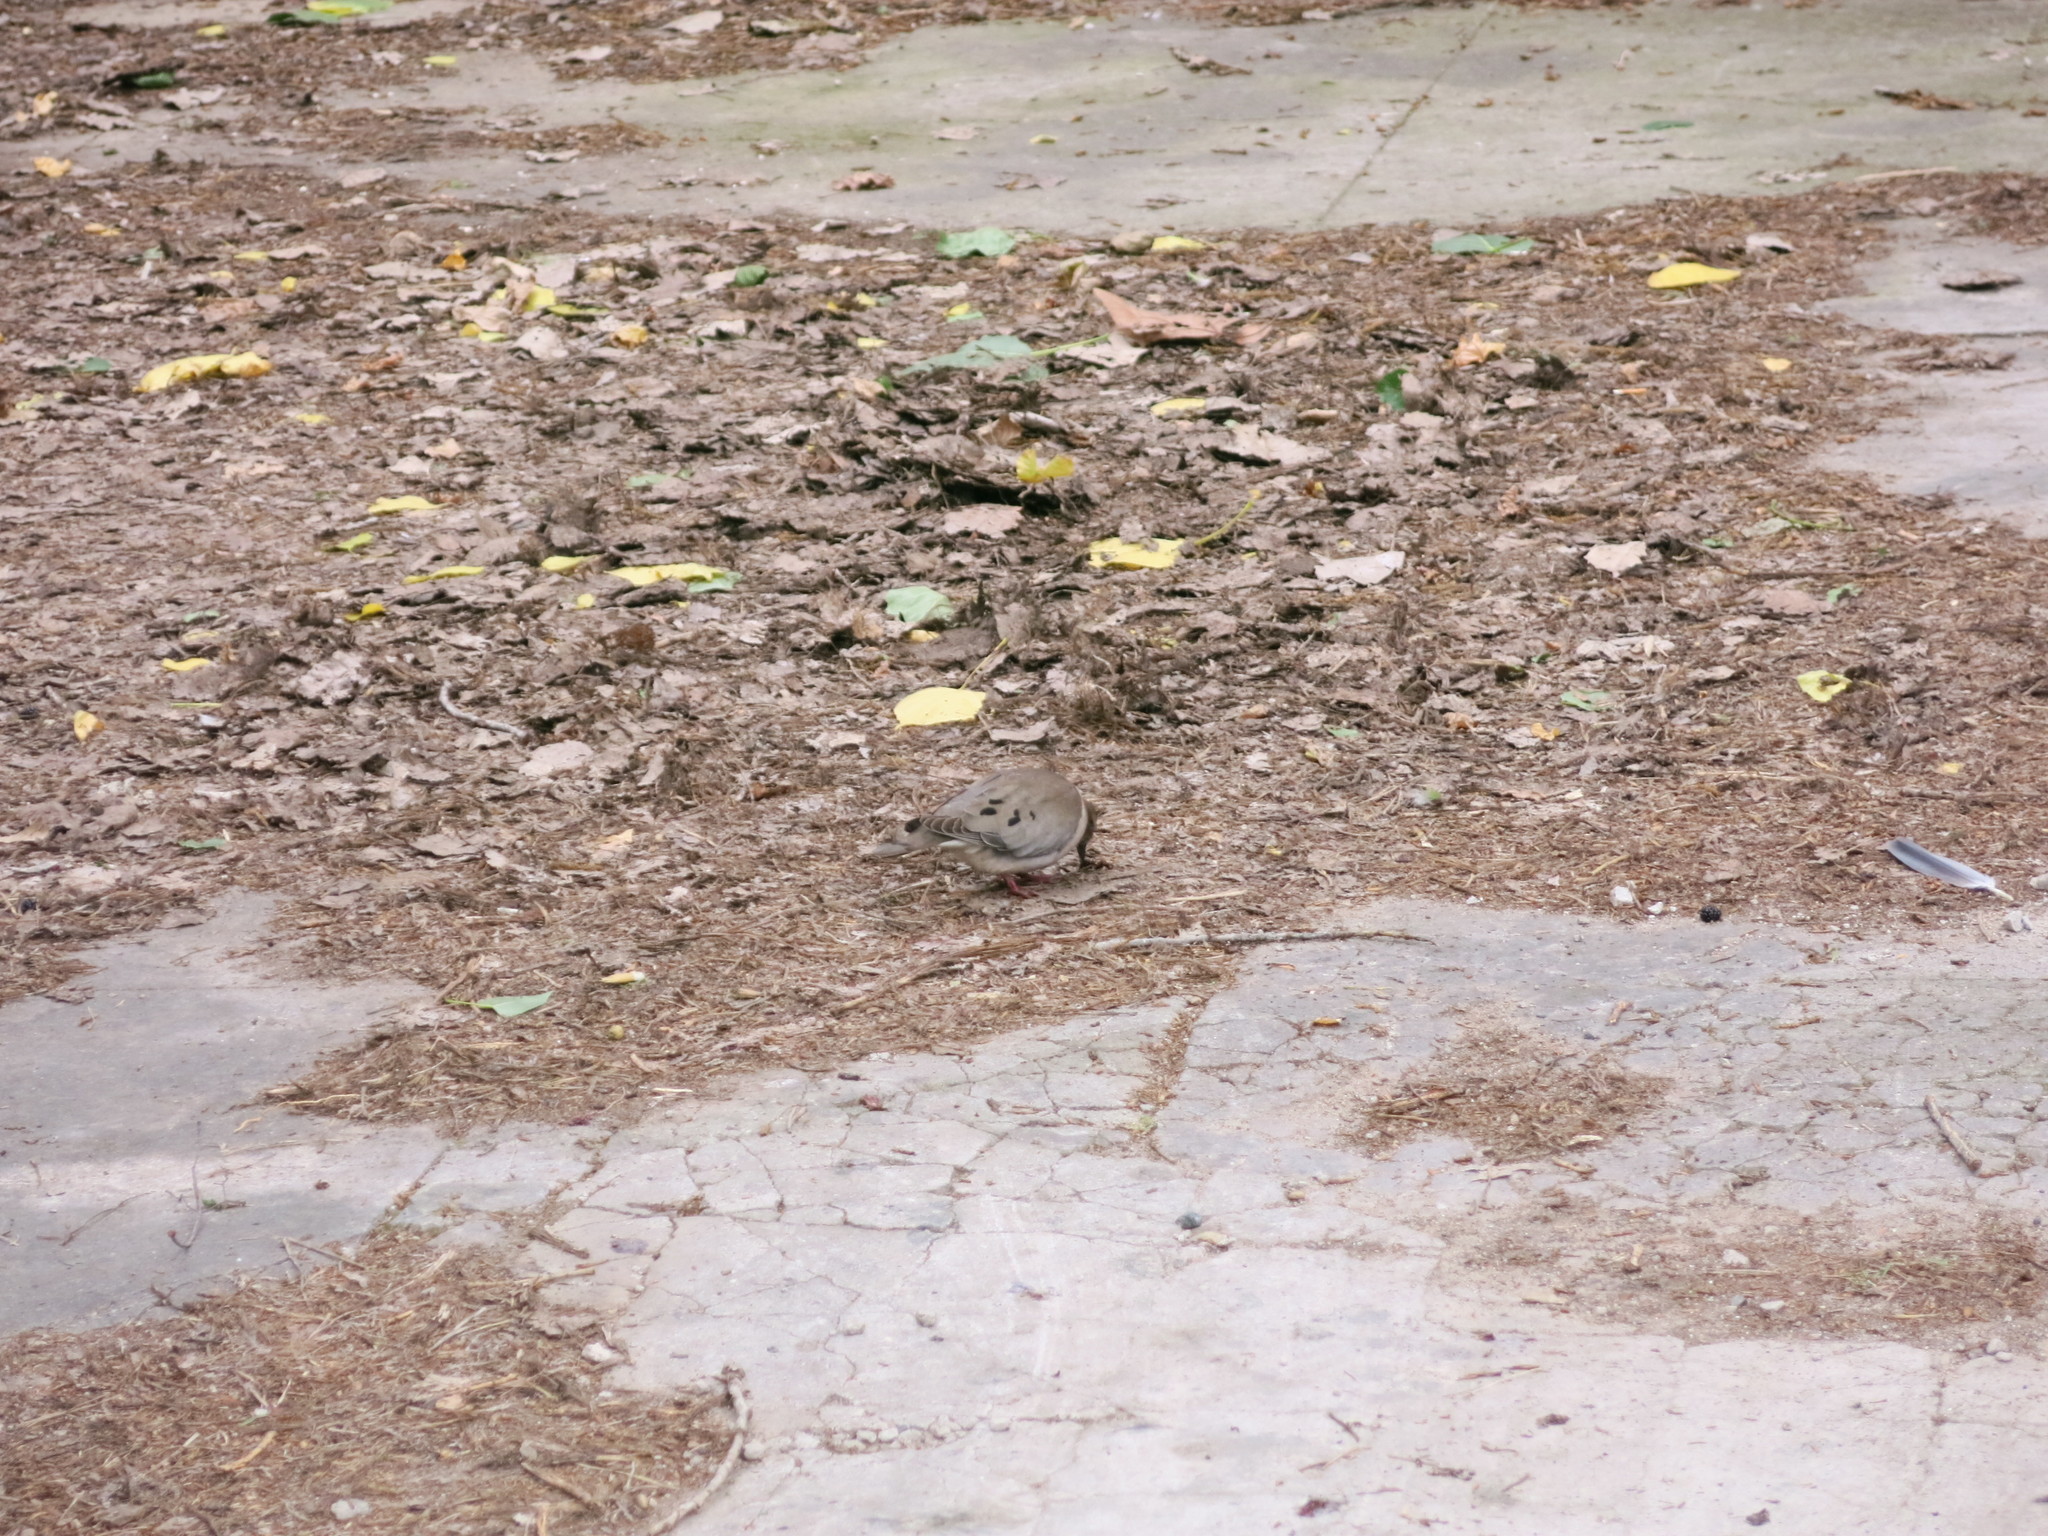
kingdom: Animalia
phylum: Chordata
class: Aves
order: Columbiformes
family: Columbidae
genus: Zenaida
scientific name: Zenaida auriculata
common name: Eared dove
